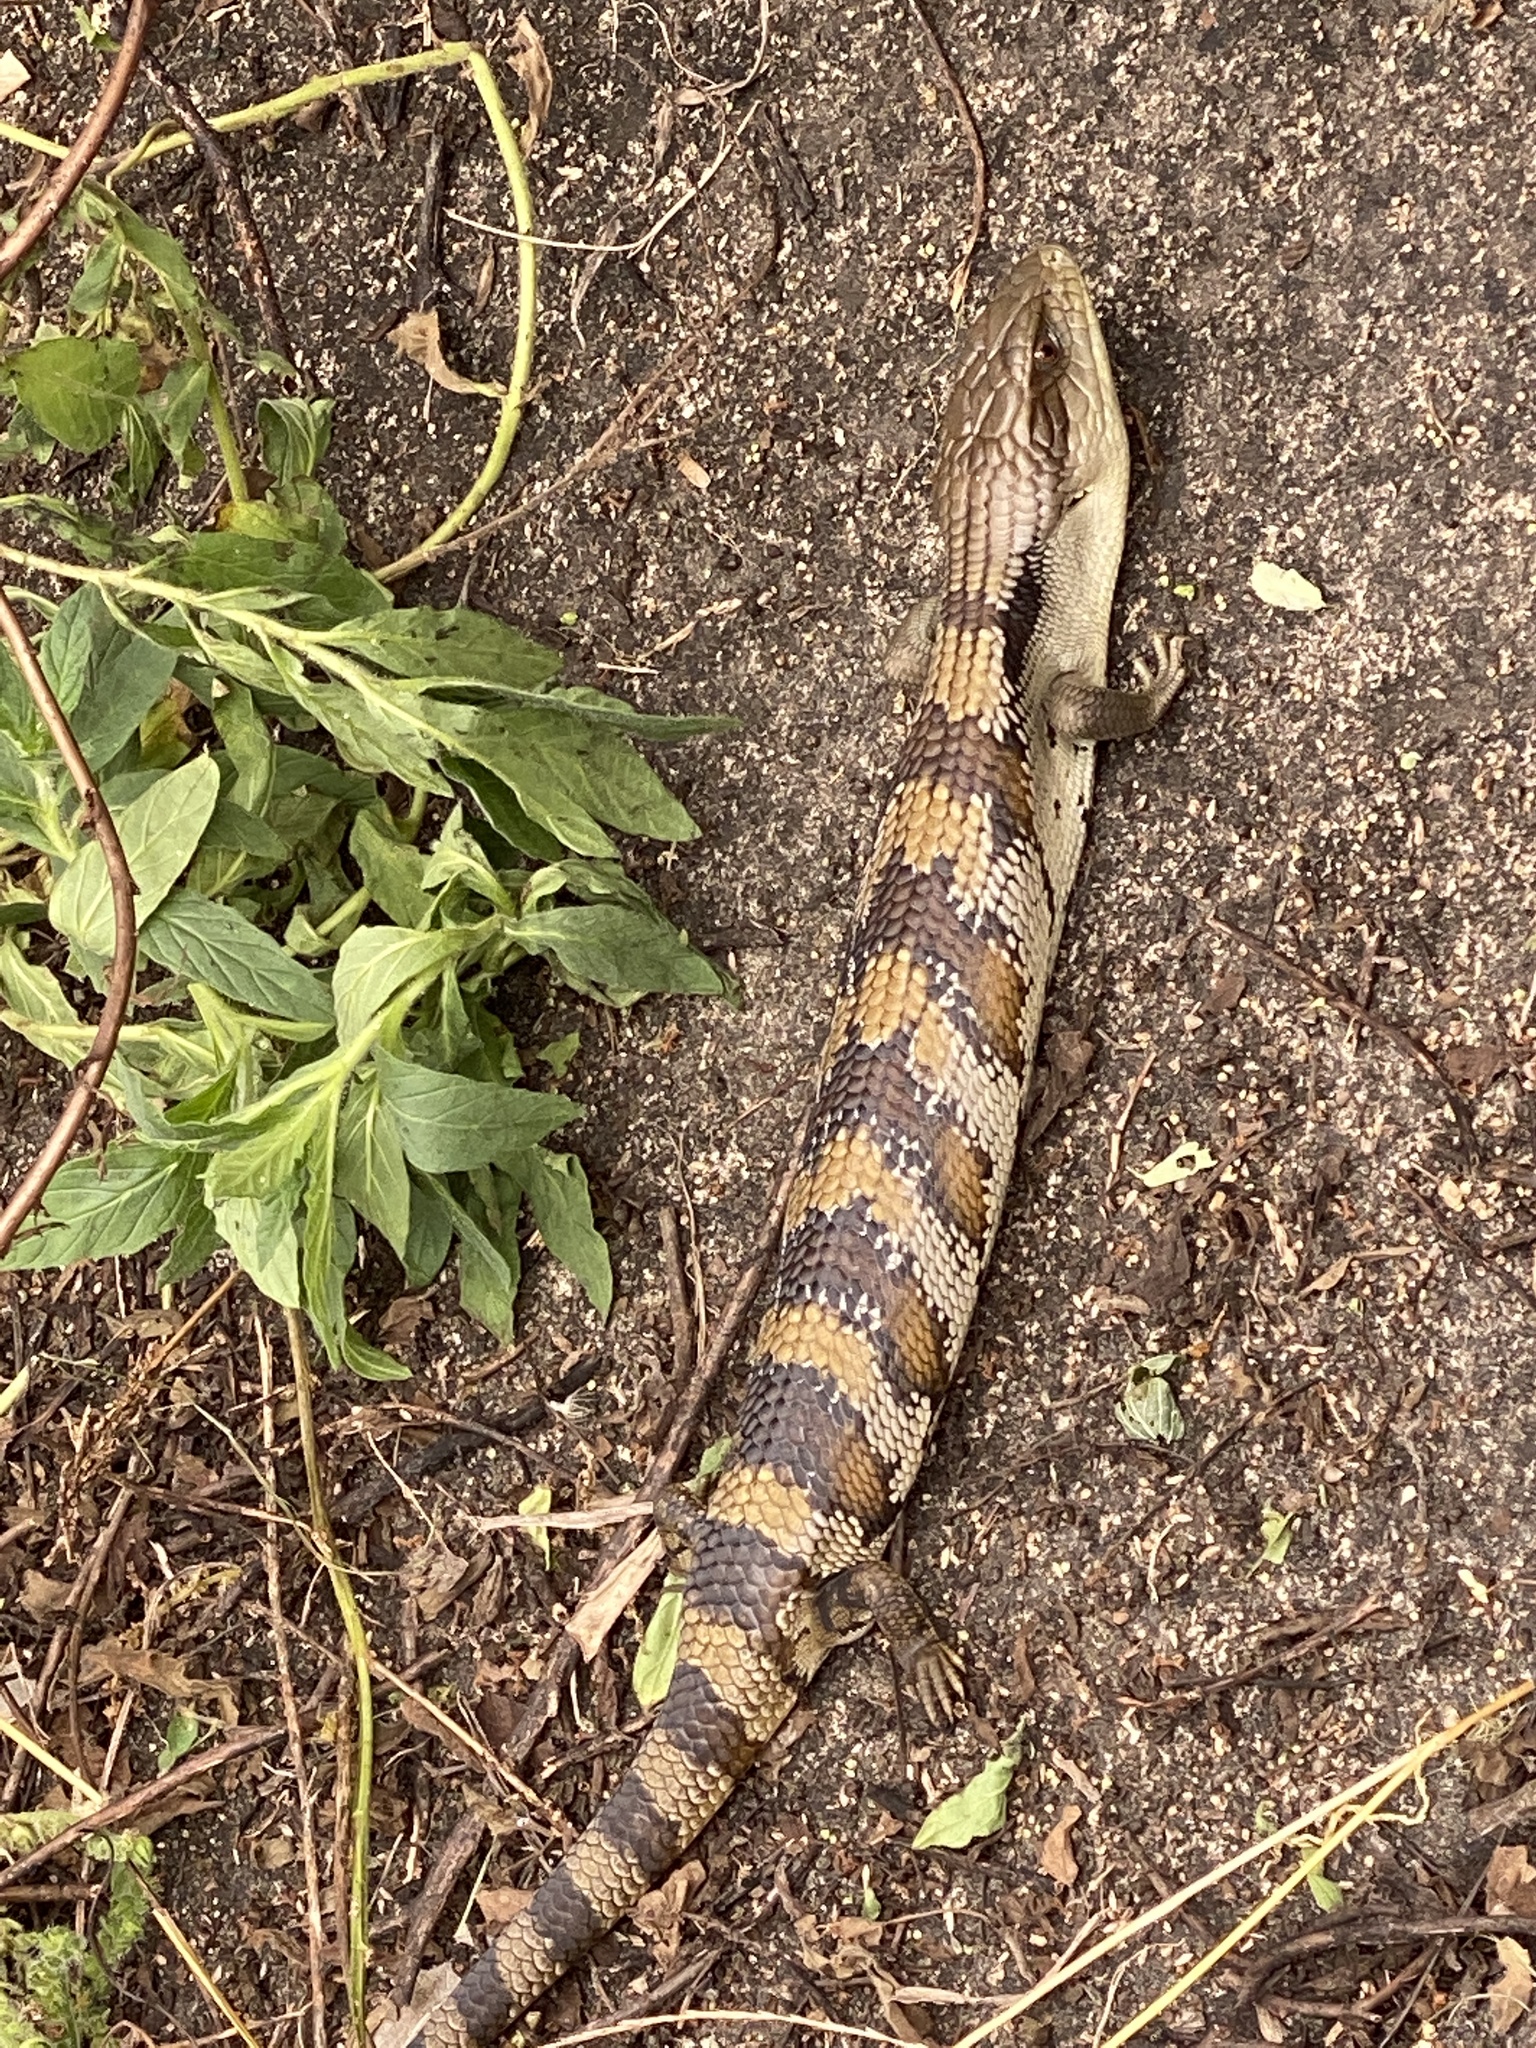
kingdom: Animalia
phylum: Chordata
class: Squamata
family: Scincidae
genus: Tiliqua
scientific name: Tiliqua scincoides
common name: Common bluetongue
